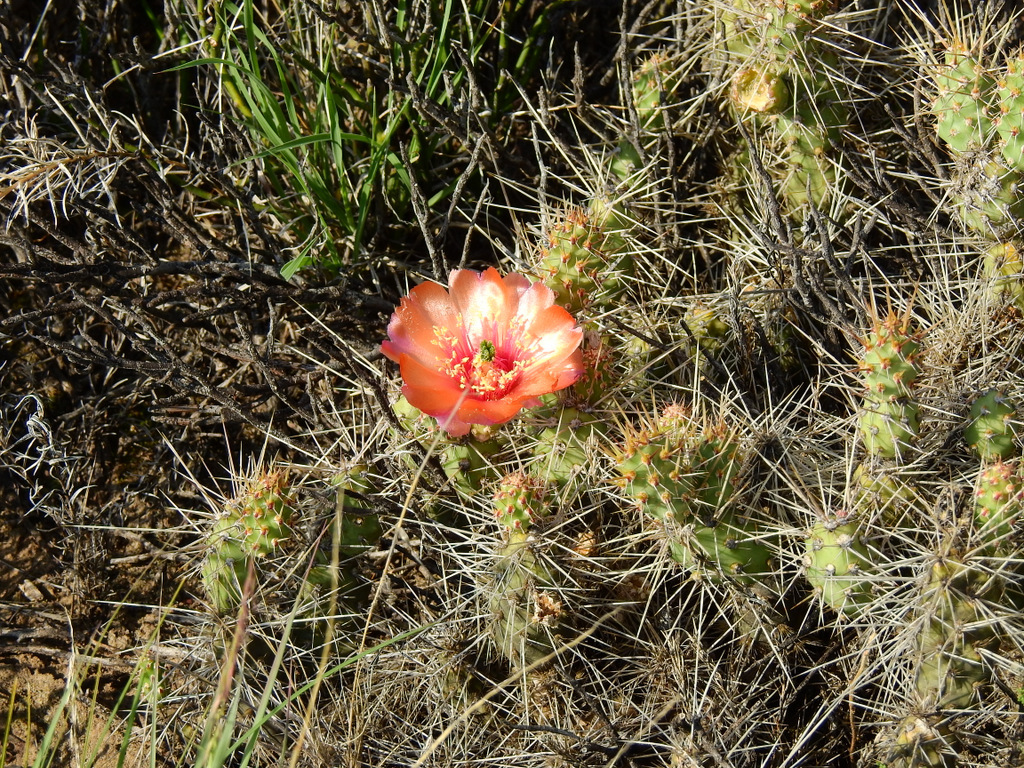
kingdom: Plantae
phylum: Tracheophyta
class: Magnoliopsida
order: Caryophyllales
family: Cactaceae
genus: Airampoa
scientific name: Airampoa corrugata
